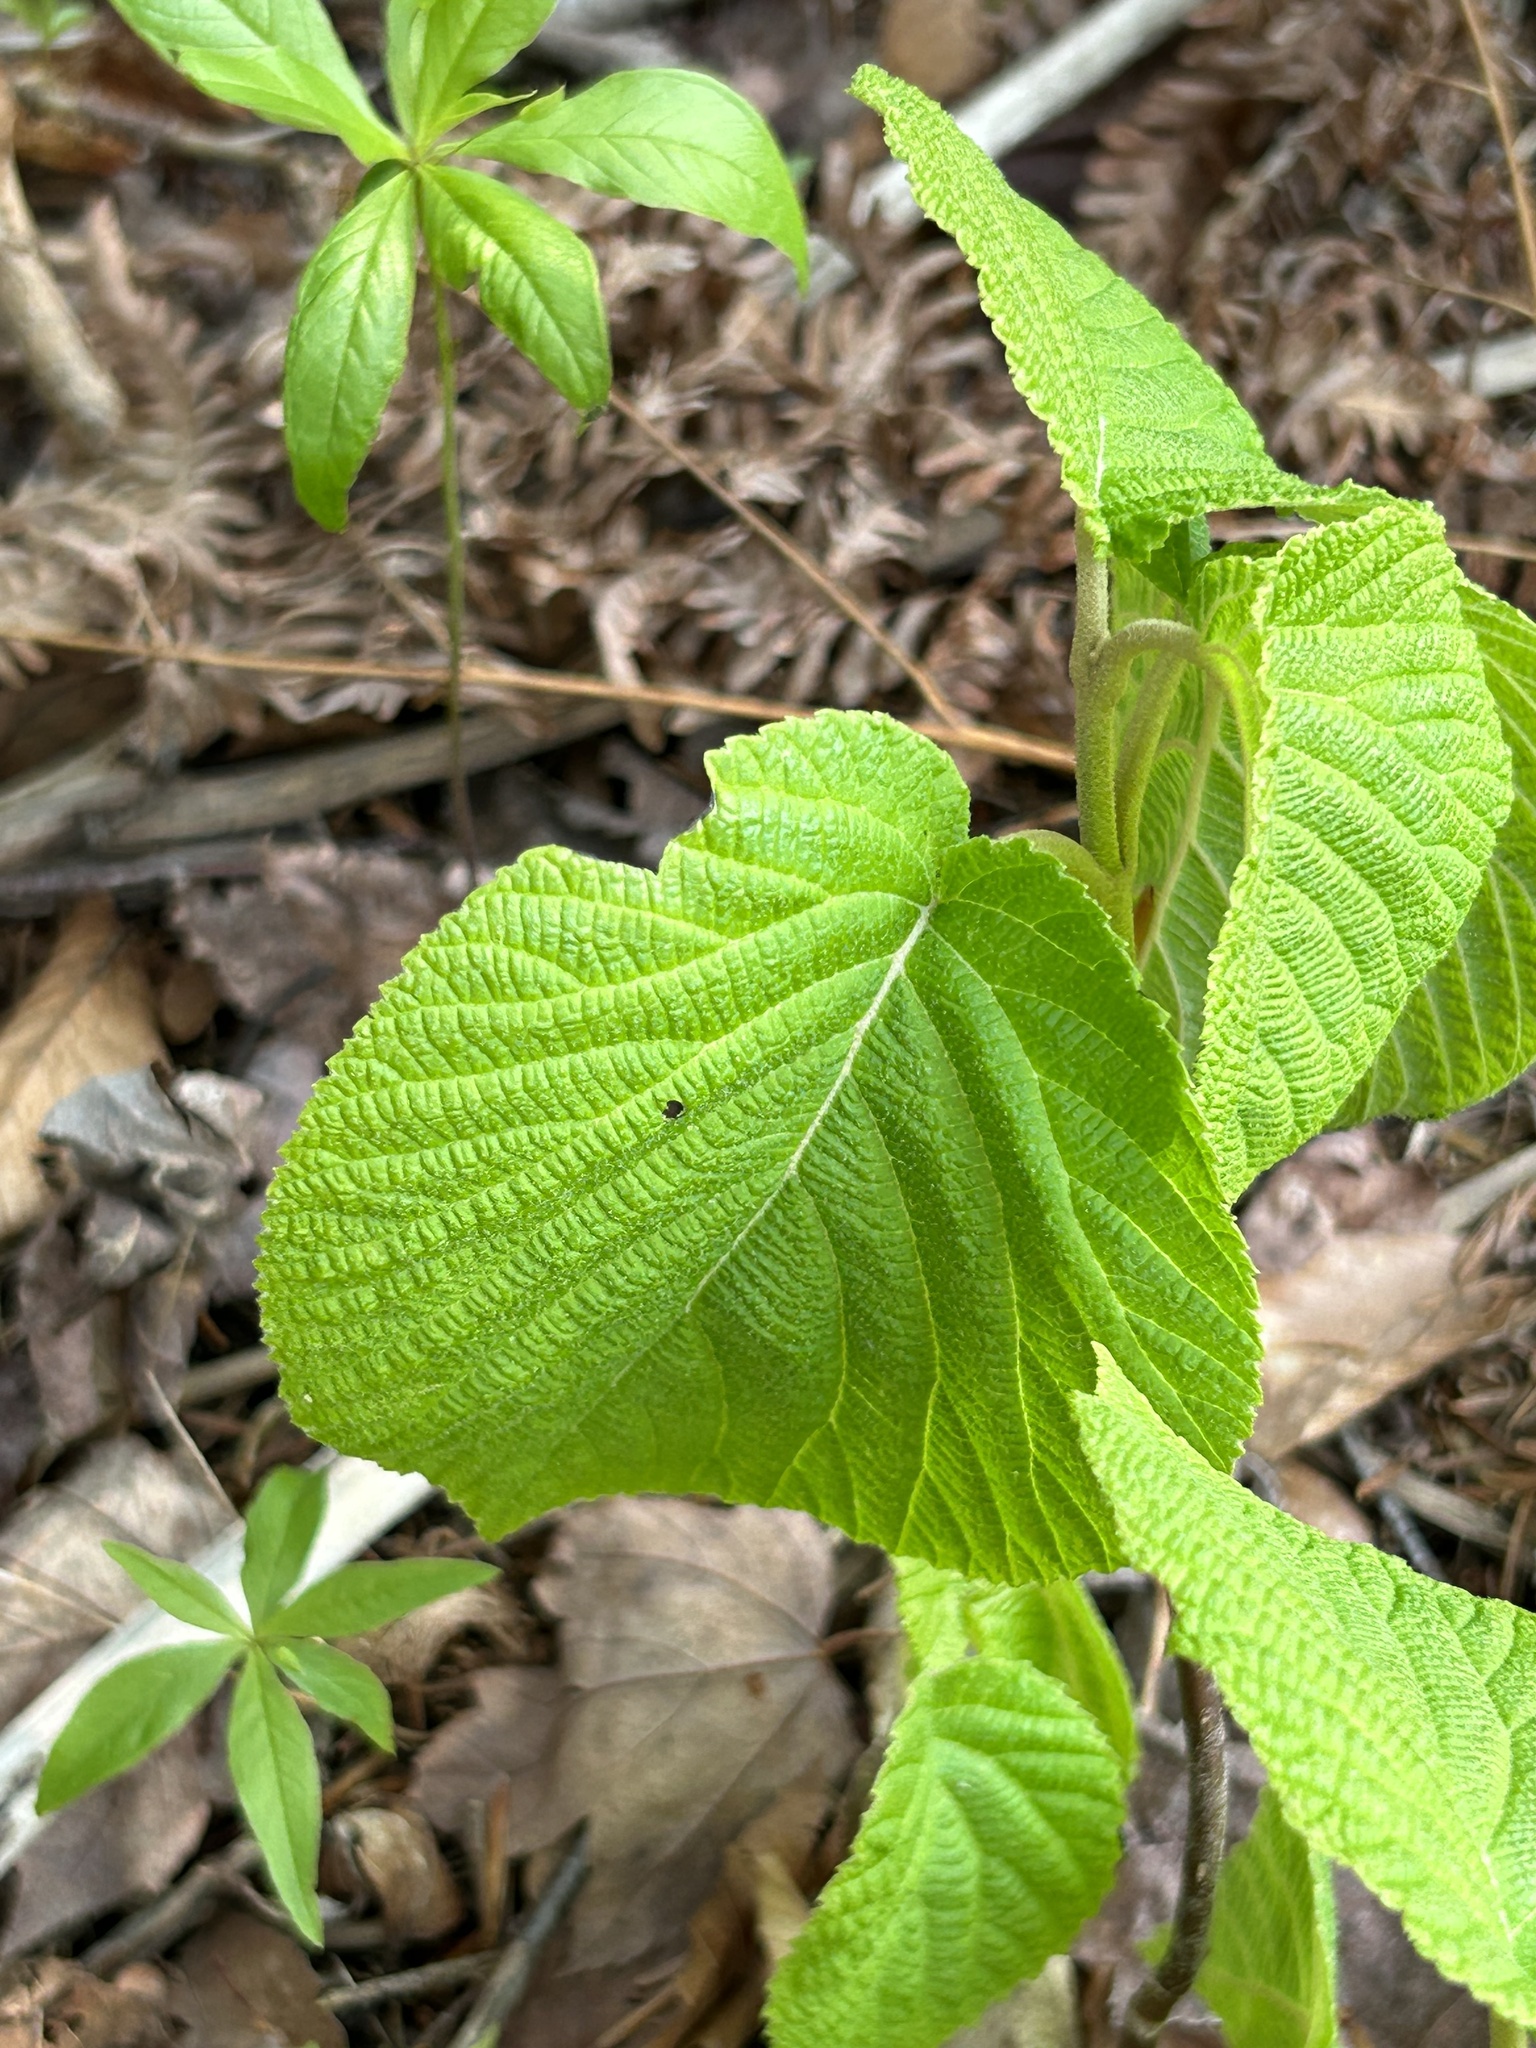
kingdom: Plantae
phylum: Tracheophyta
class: Magnoliopsida
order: Dipsacales
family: Viburnaceae
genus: Viburnum
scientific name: Viburnum lantanoides
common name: Hobblebush
